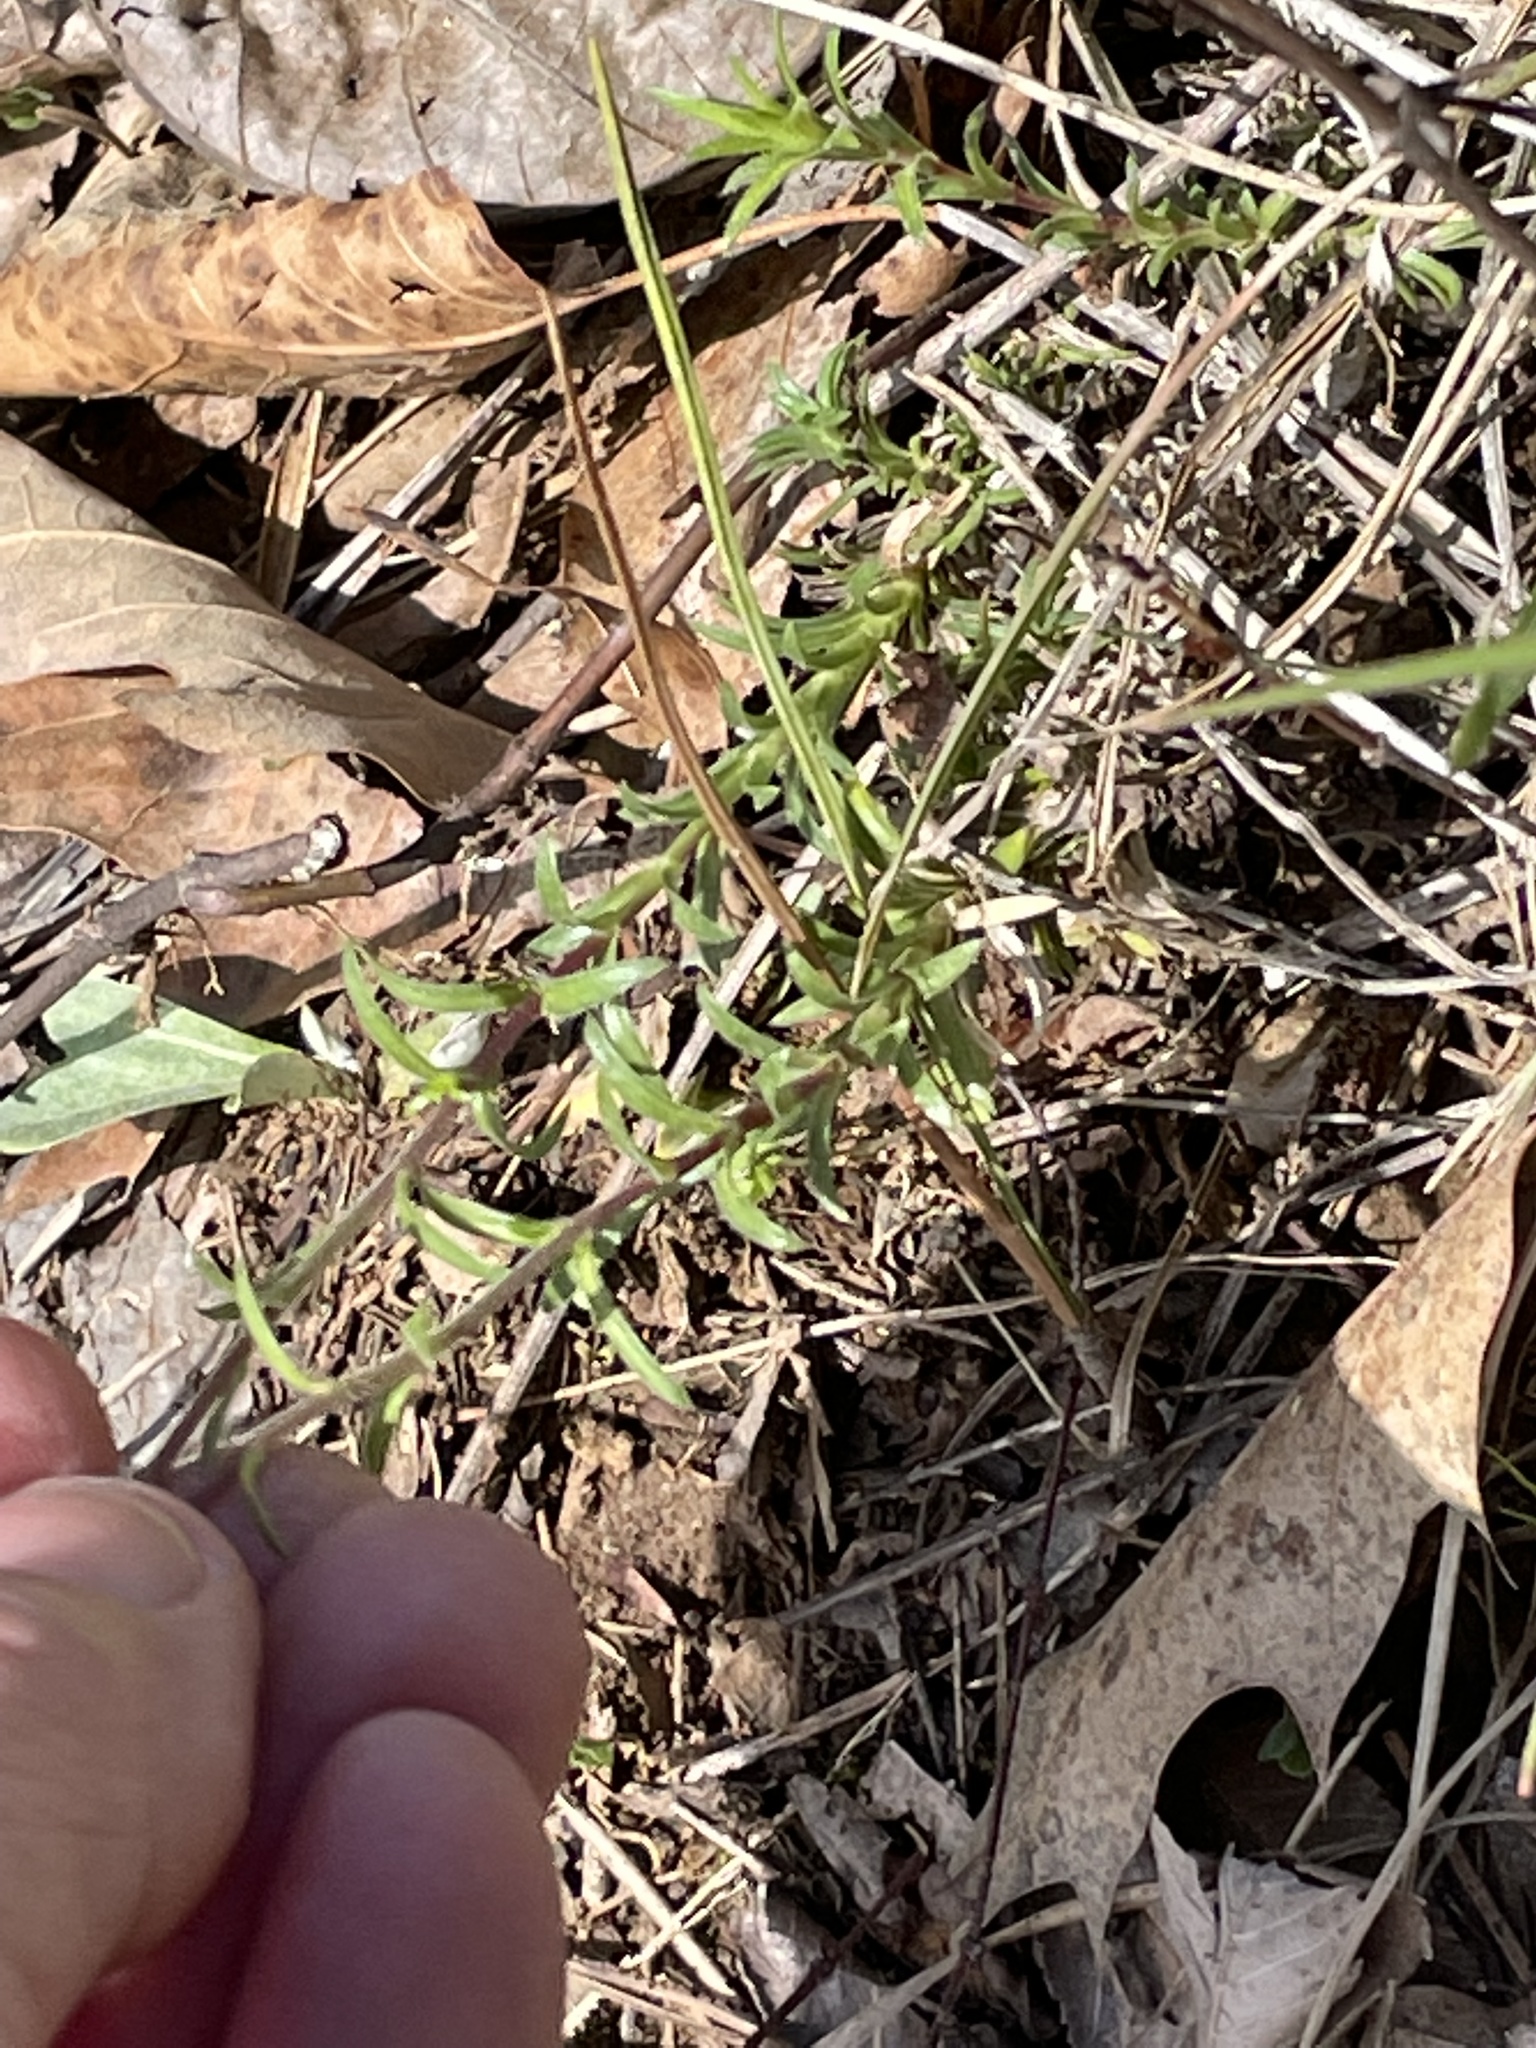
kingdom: Plantae
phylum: Tracheophyta
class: Magnoliopsida
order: Ericales
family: Polemoniaceae
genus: Phlox
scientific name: Phlox nivalis
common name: Trailing phlox
